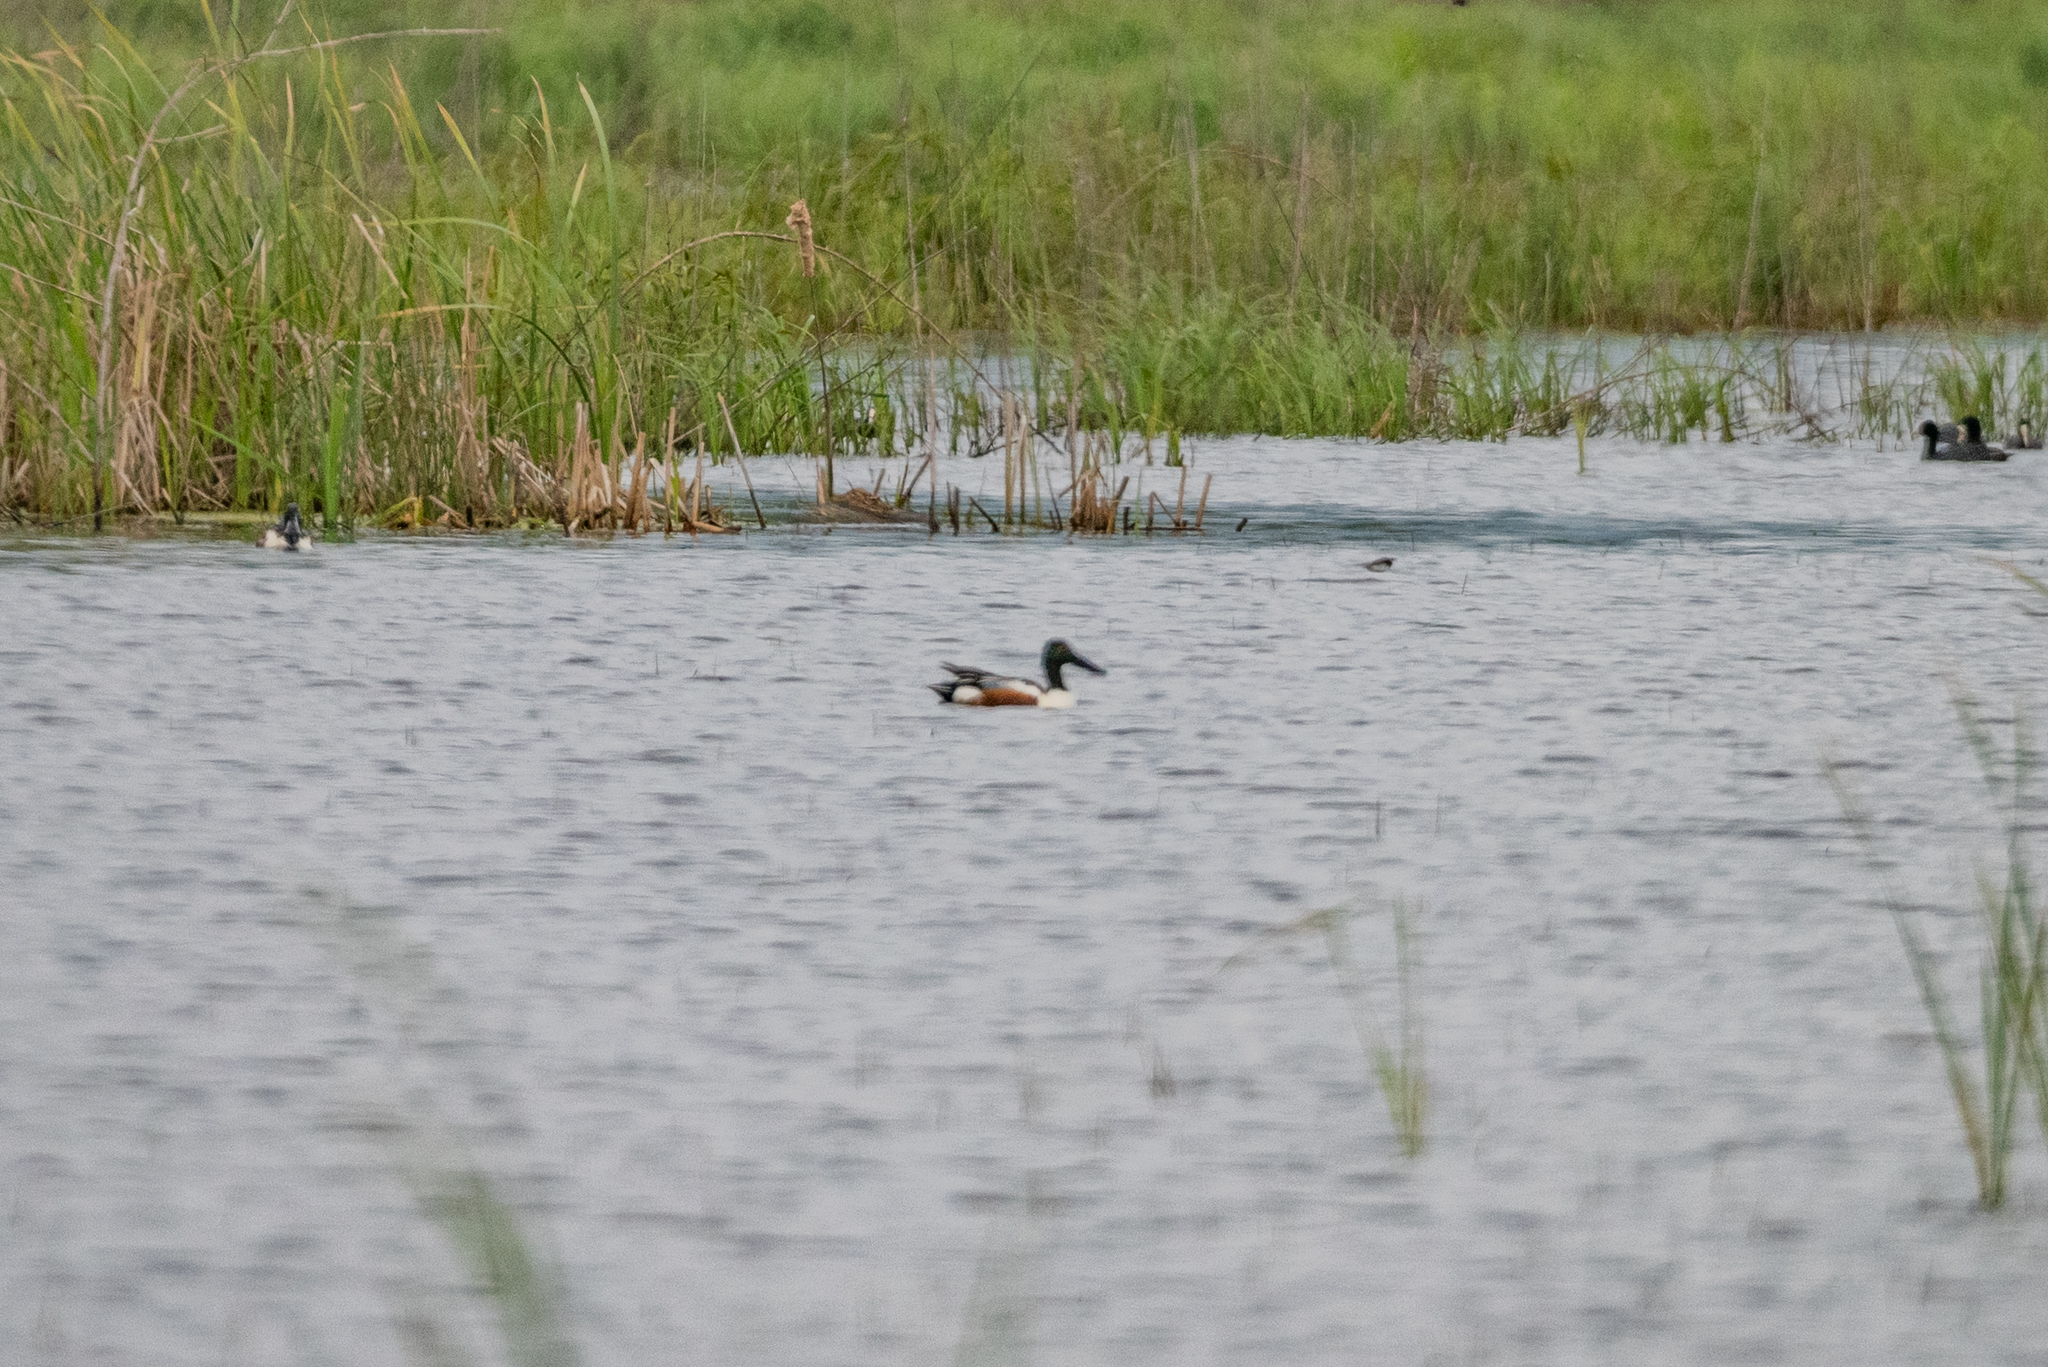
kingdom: Animalia
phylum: Chordata
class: Aves
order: Anseriformes
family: Anatidae
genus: Spatula
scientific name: Spatula clypeata
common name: Northern shoveler
